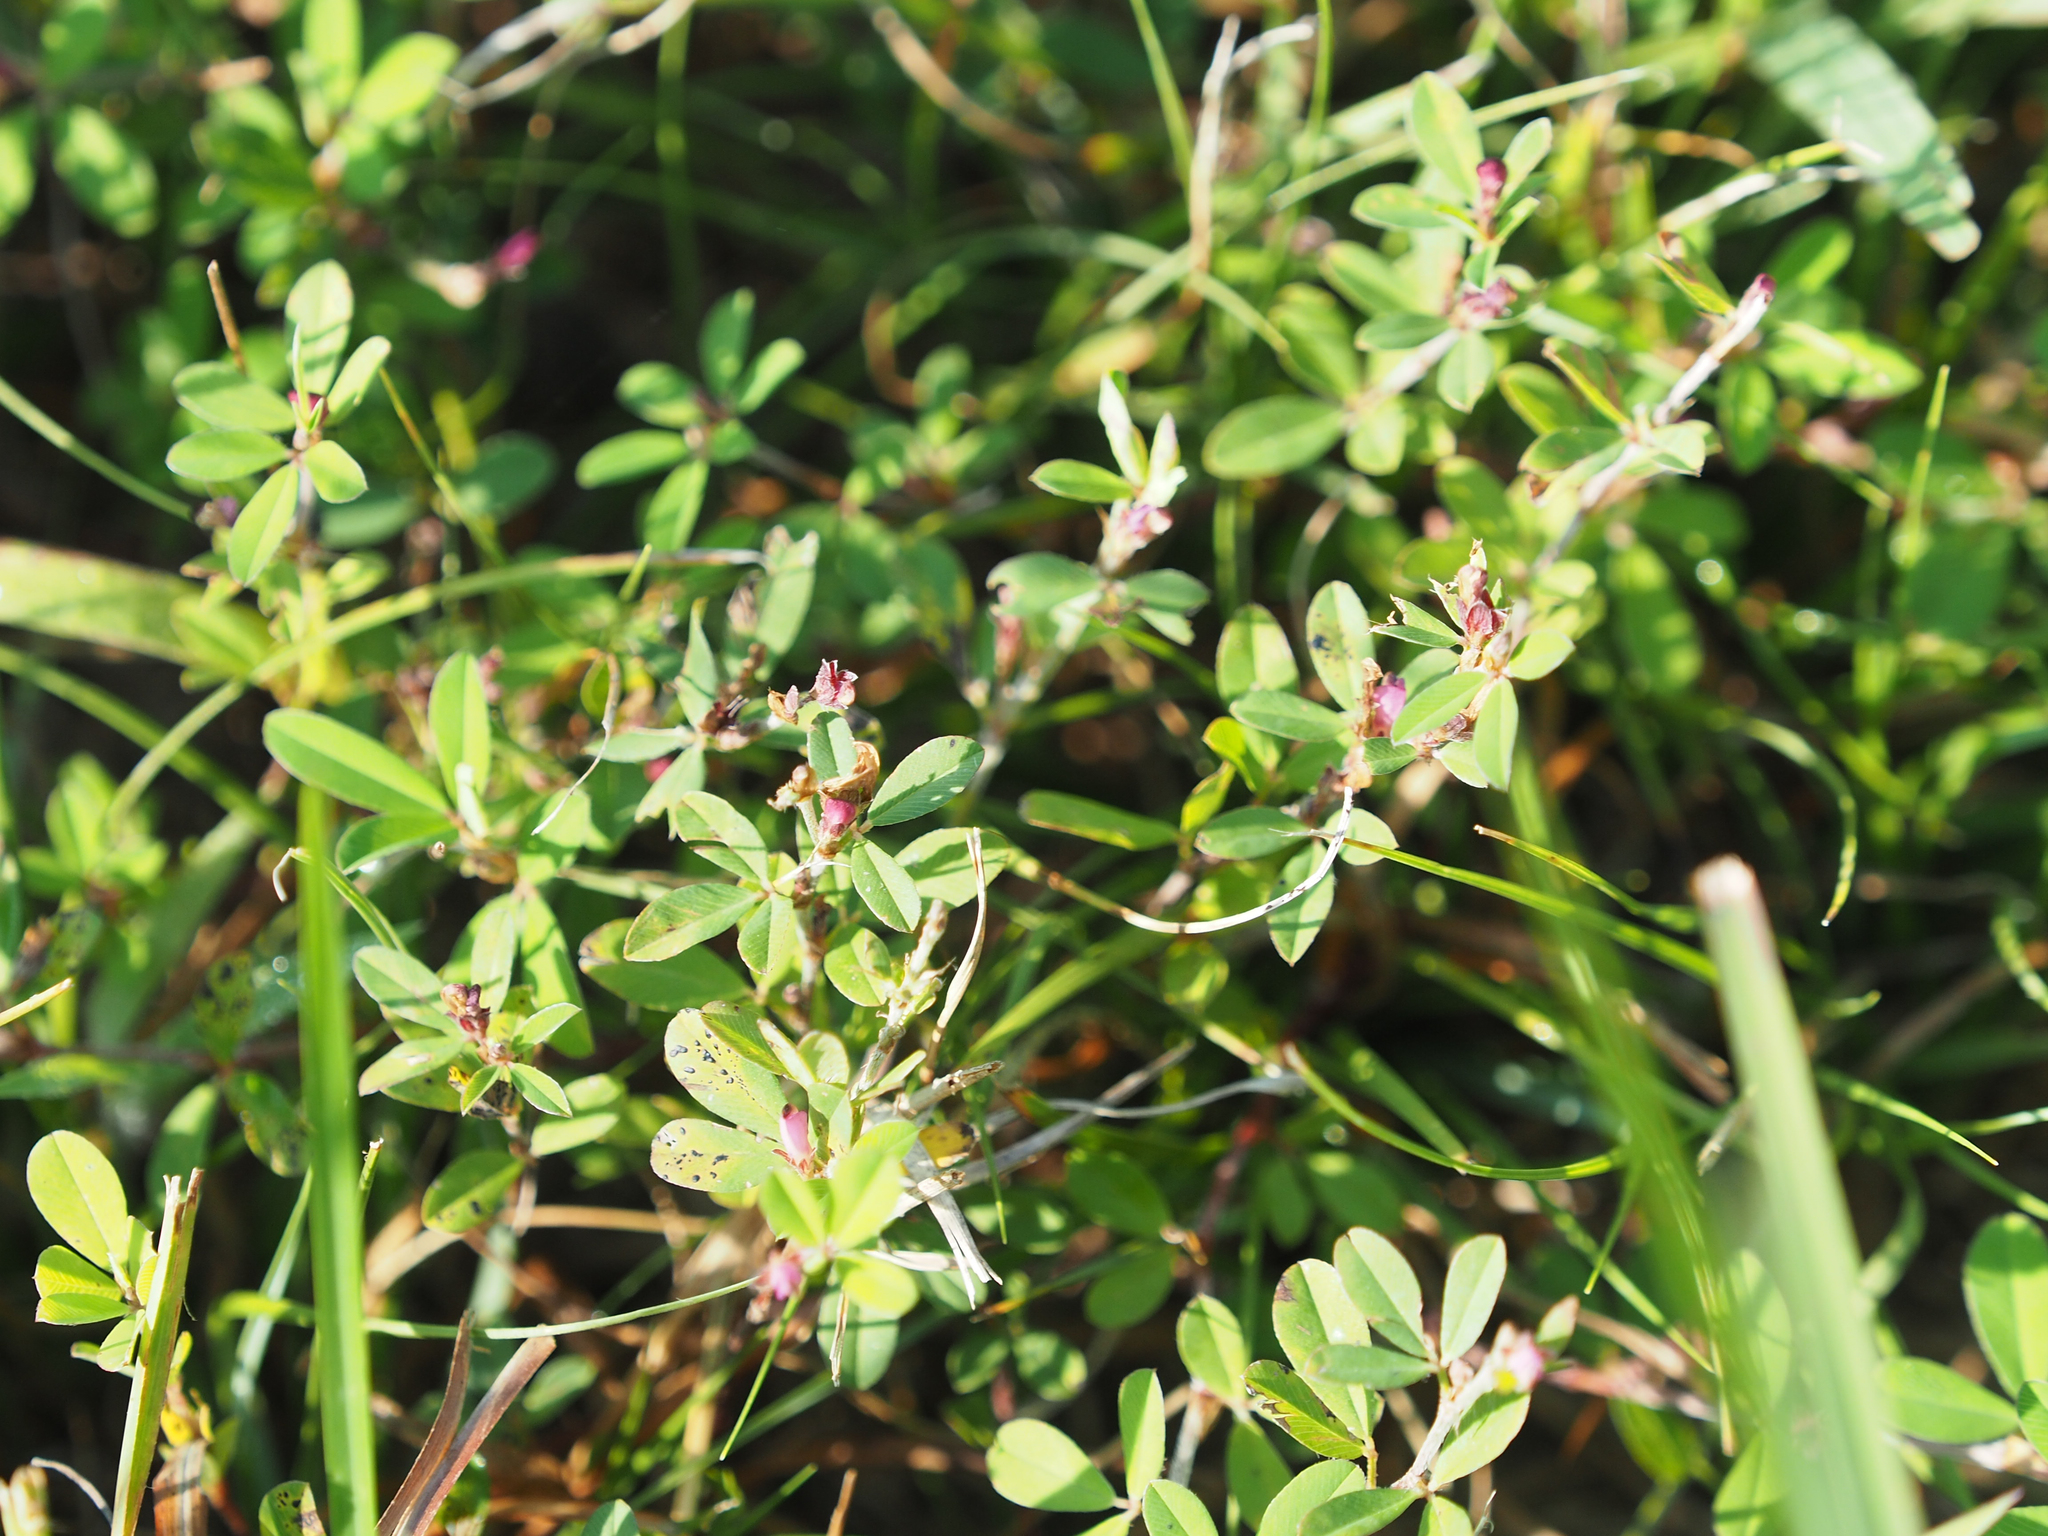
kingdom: Plantae
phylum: Tracheophyta
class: Magnoliopsida
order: Fabales
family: Fabaceae
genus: Kummerowia
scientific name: Kummerowia striata
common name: Japanese clover
